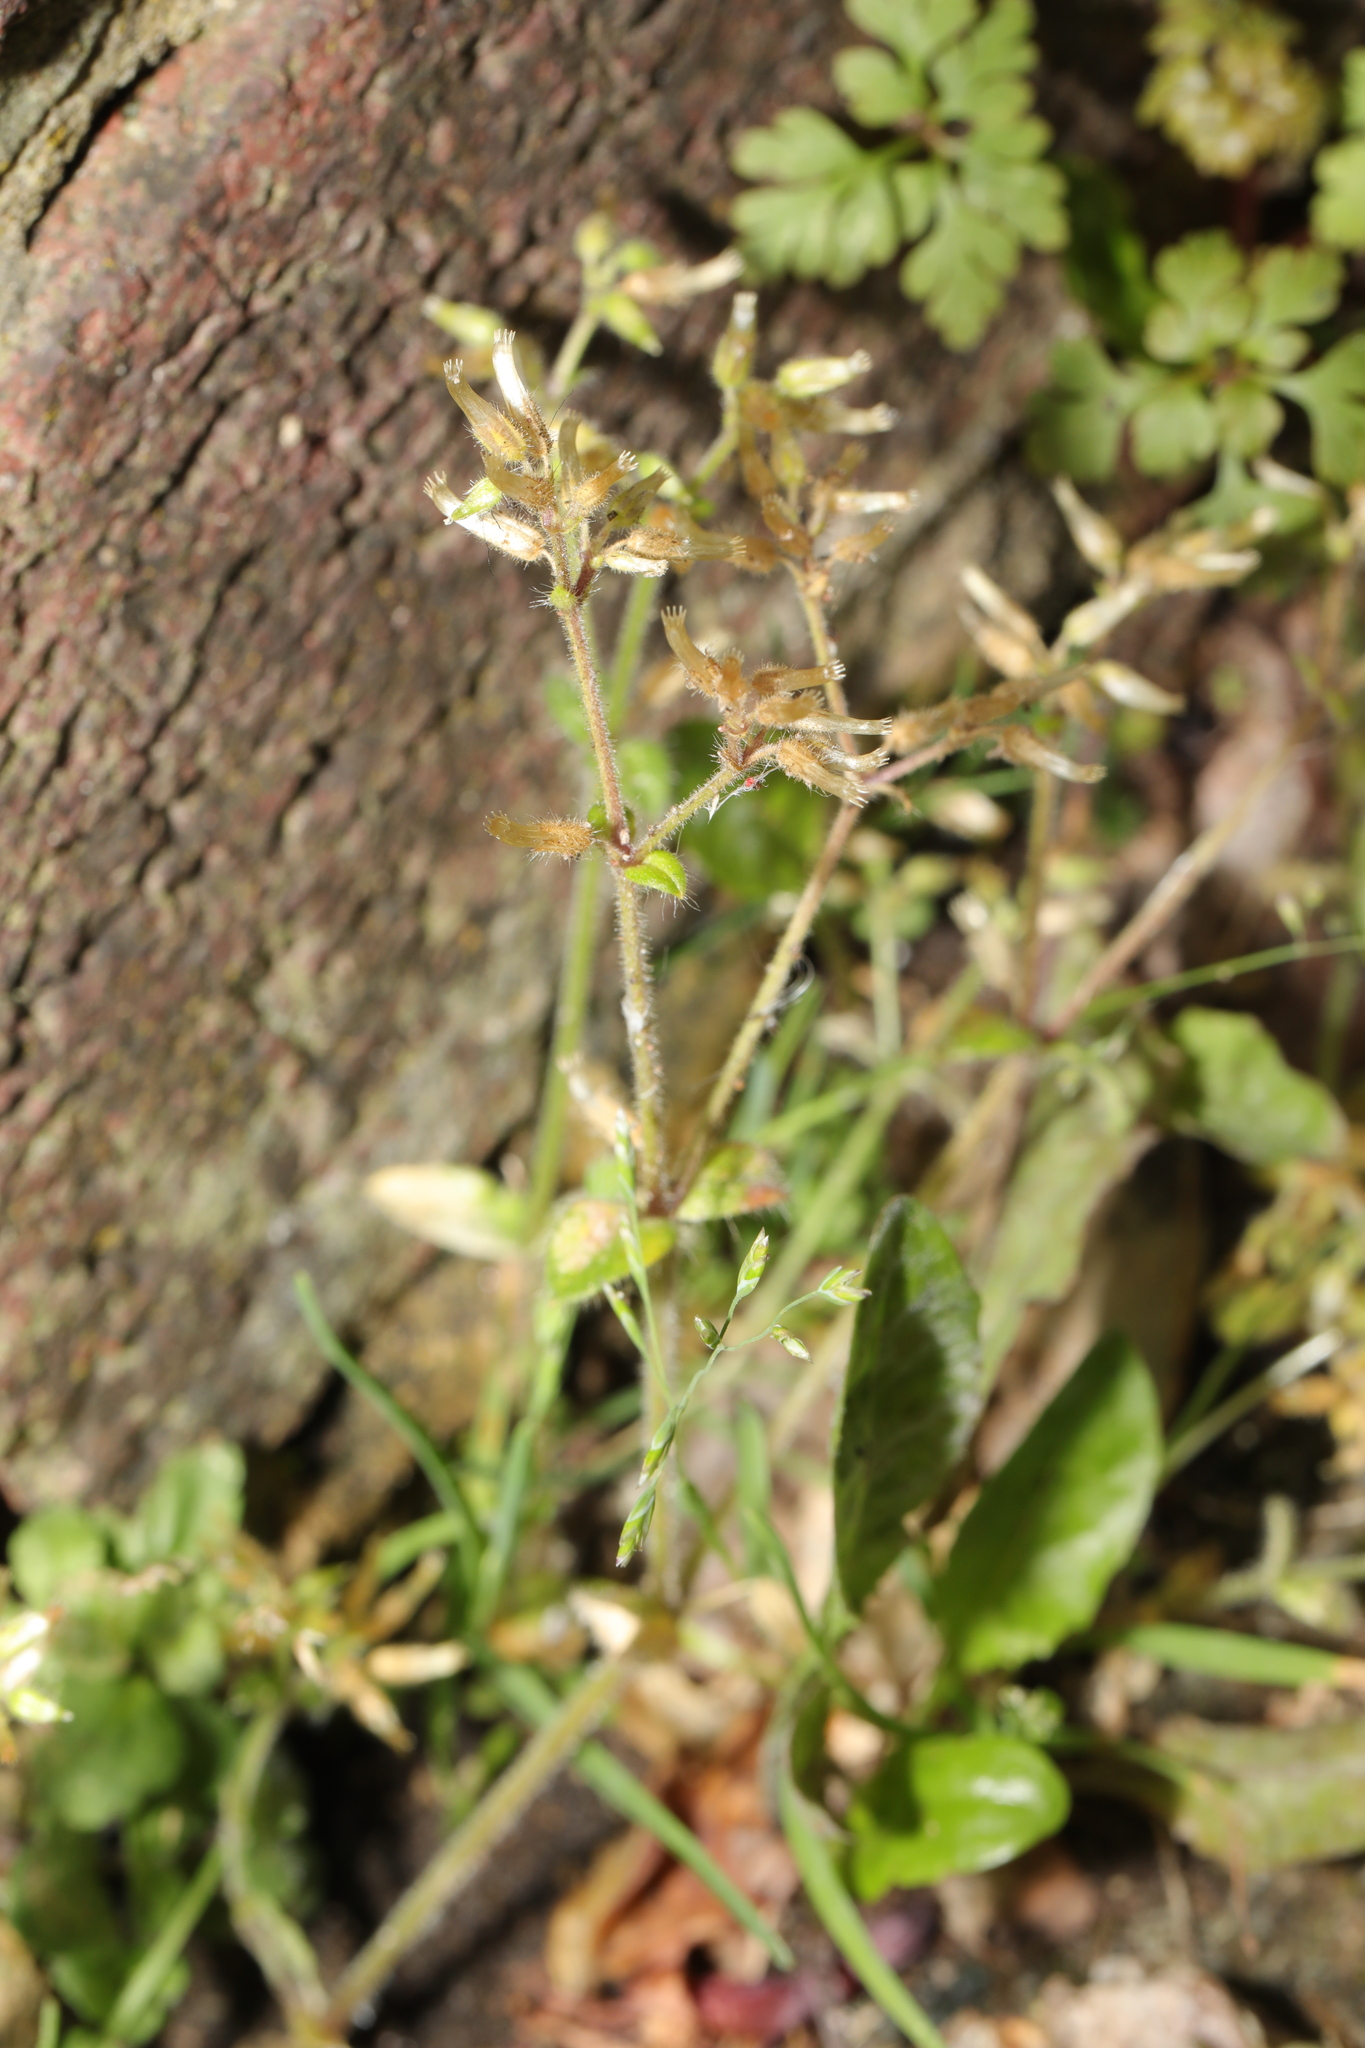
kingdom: Plantae
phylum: Tracheophyta
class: Magnoliopsida
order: Caryophyllales
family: Caryophyllaceae
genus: Cerastium
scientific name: Cerastium glomeratum
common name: Sticky chickweed
